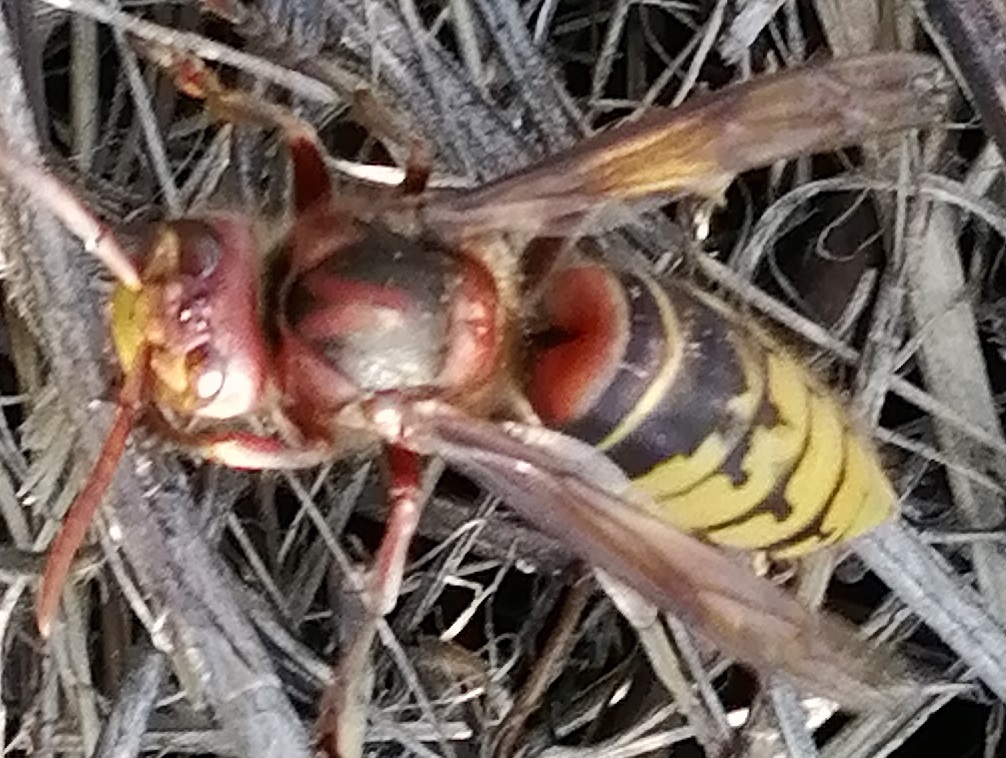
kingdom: Animalia
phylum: Arthropoda
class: Insecta
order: Hymenoptera
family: Vespidae
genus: Vespa
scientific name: Vespa crabro
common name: Hornet
